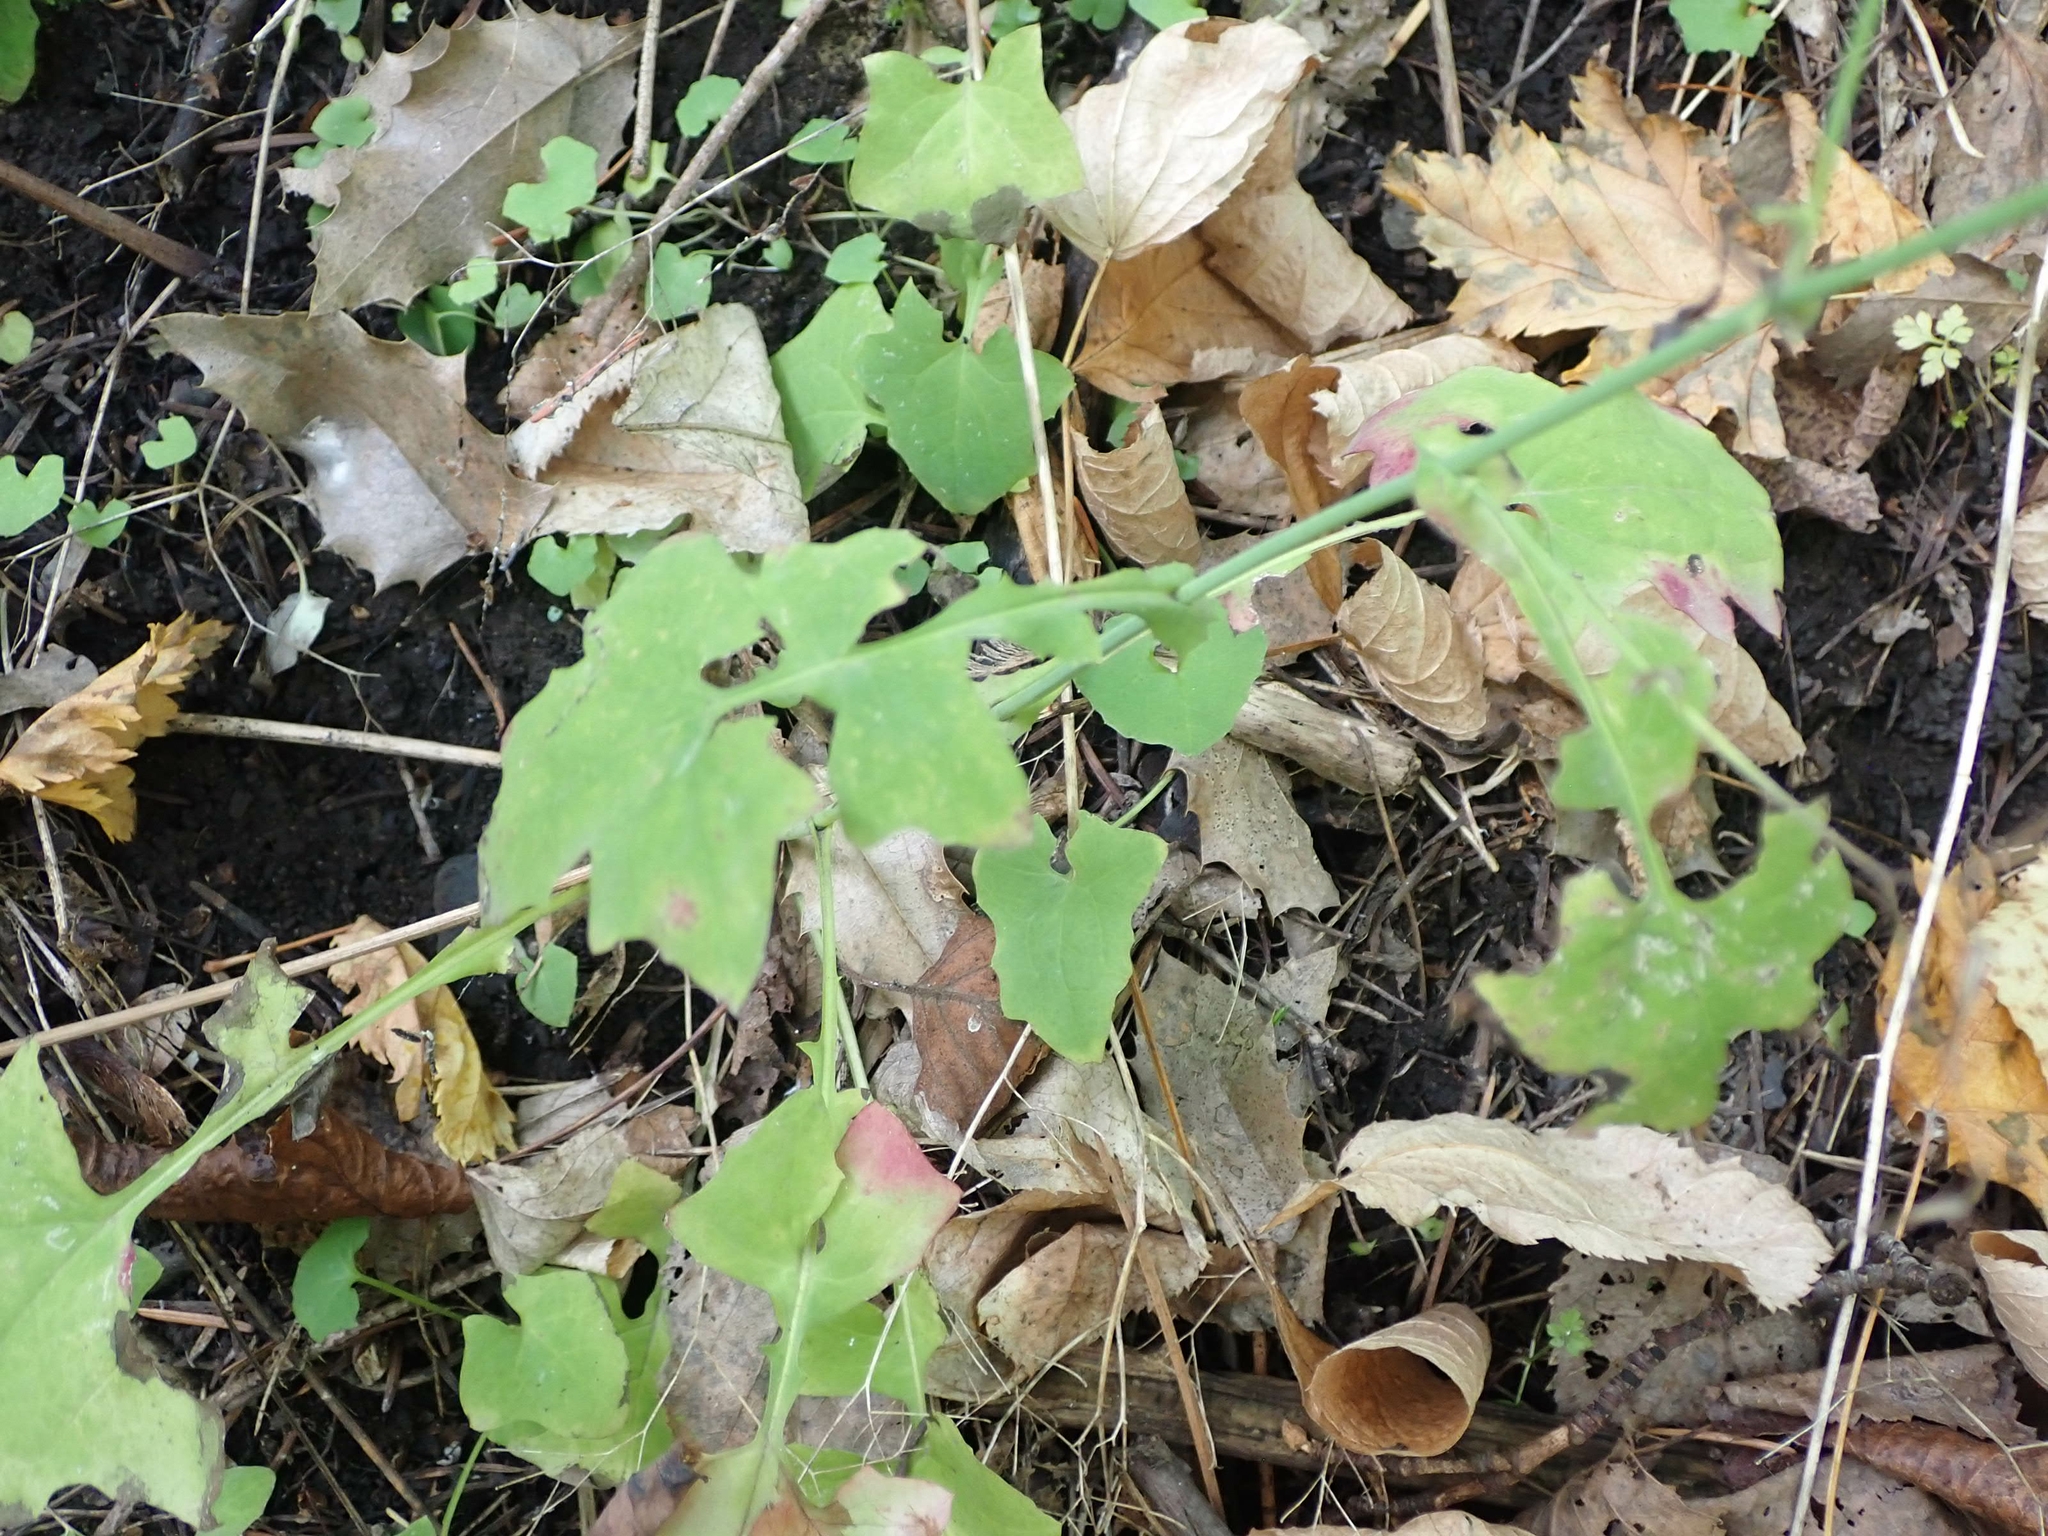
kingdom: Plantae
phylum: Tracheophyta
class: Magnoliopsida
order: Asterales
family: Asteraceae
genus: Mycelis
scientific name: Mycelis muralis
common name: Wall lettuce
